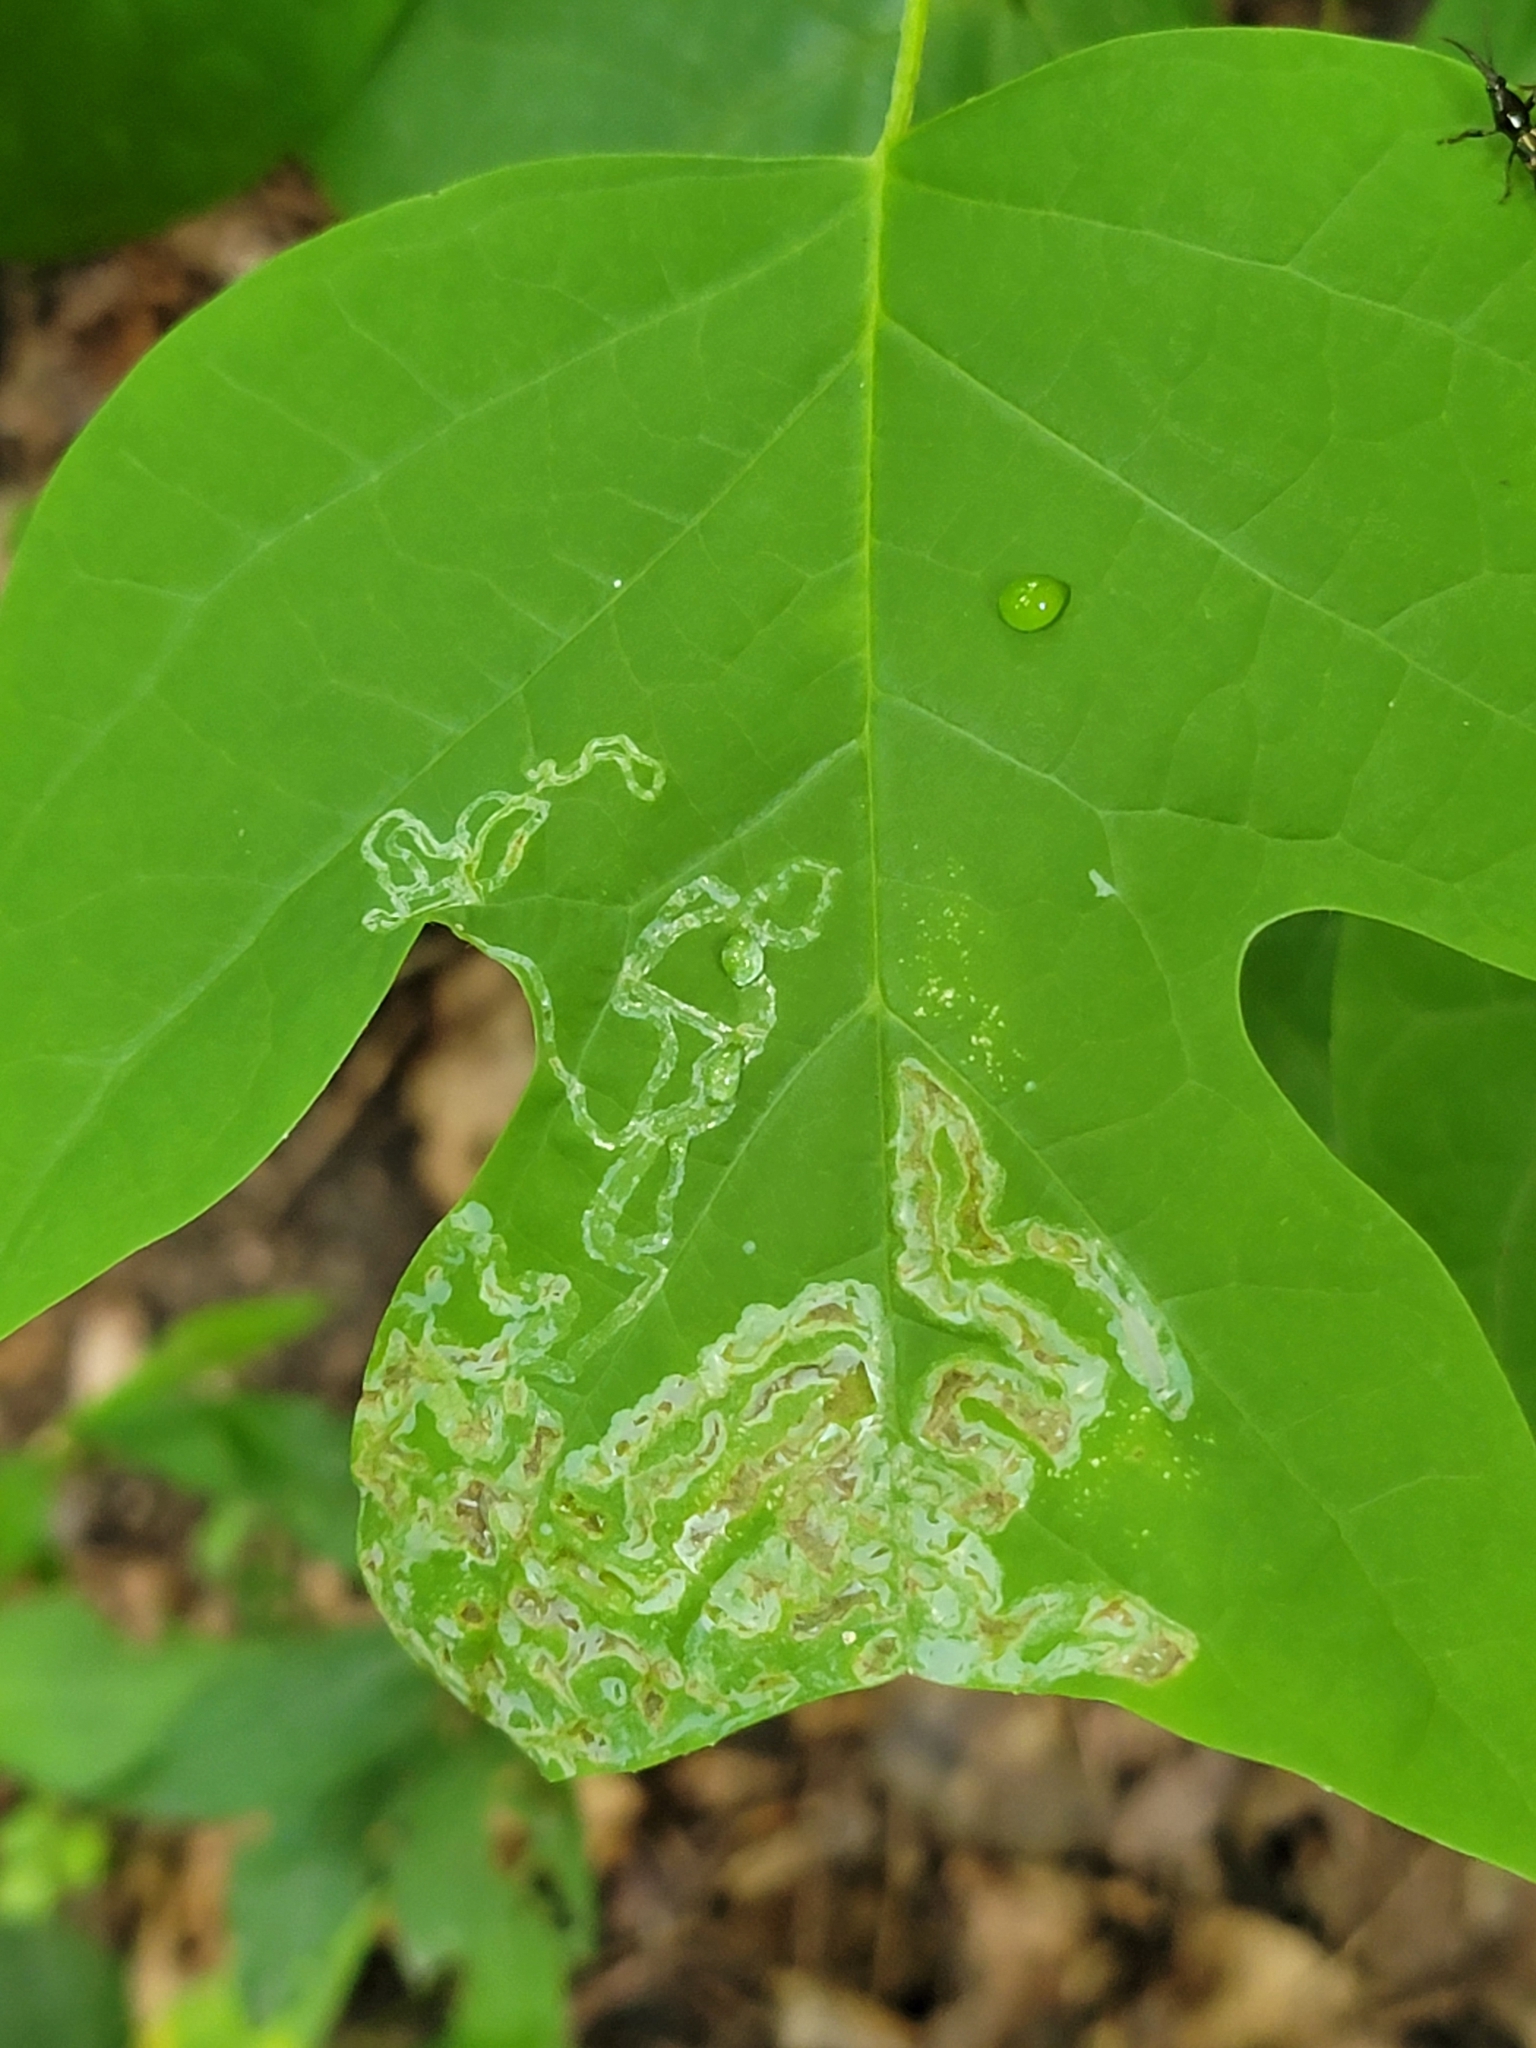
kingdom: Animalia
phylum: Arthropoda
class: Insecta
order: Lepidoptera
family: Gracillariidae
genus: Phyllocnistis
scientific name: Phyllocnistis liriodendronella
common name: Tulip tree leaf miner
